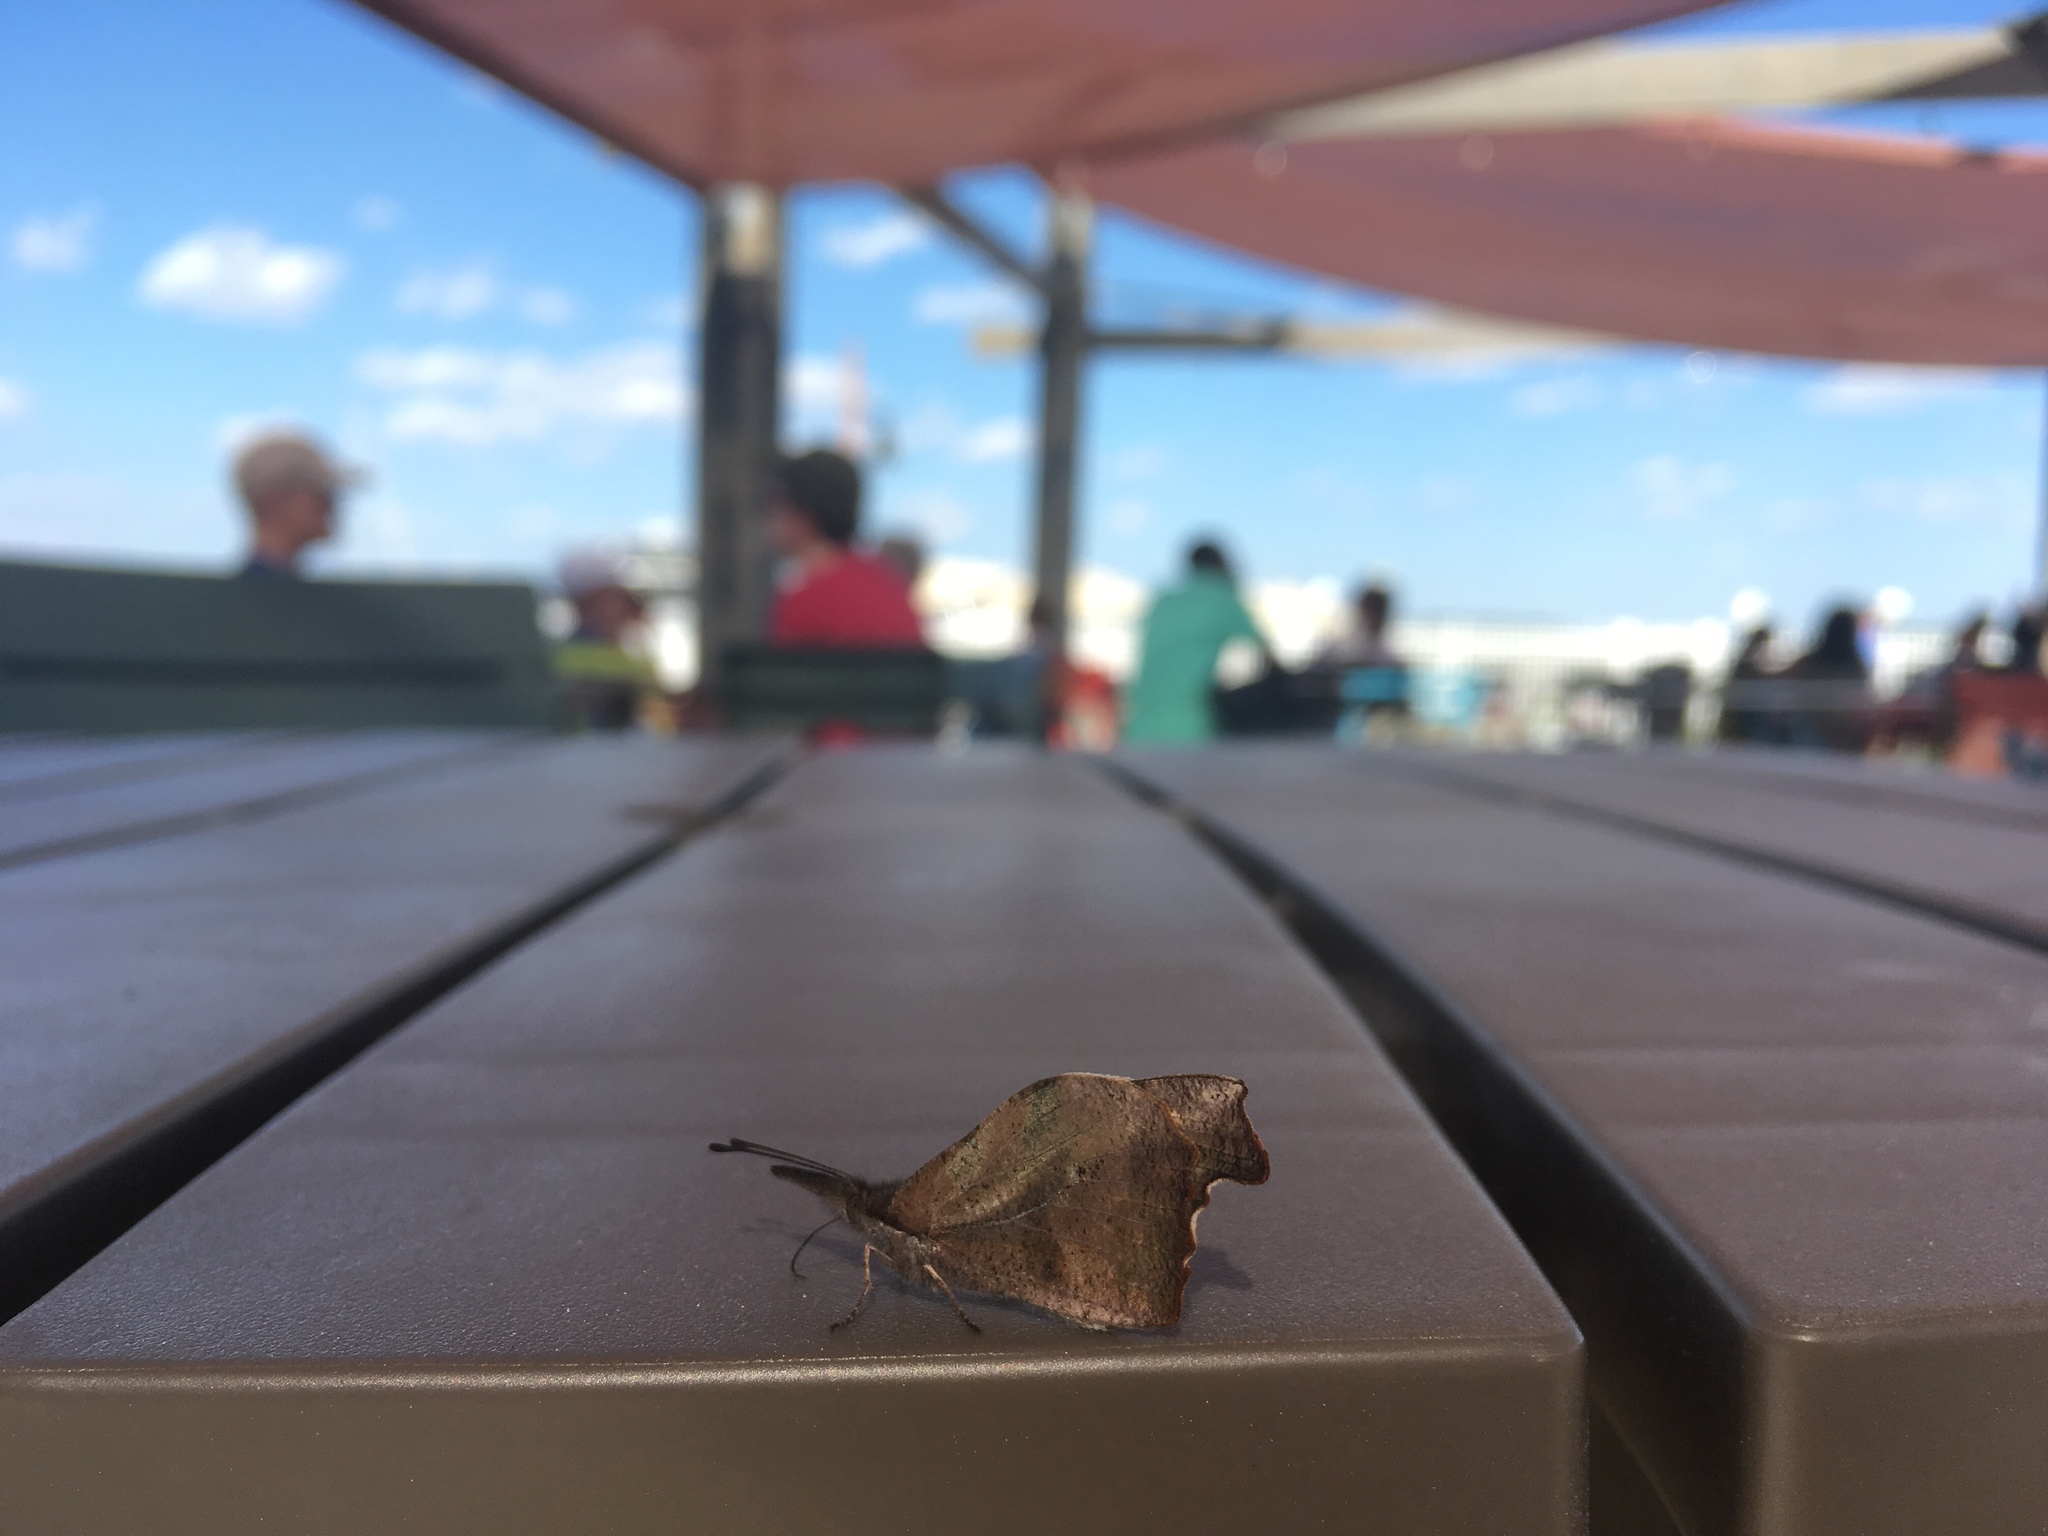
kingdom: Animalia
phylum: Arthropoda
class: Insecta
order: Lepidoptera
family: Nymphalidae
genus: Libytheana
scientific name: Libytheana carinenta
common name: American snout
